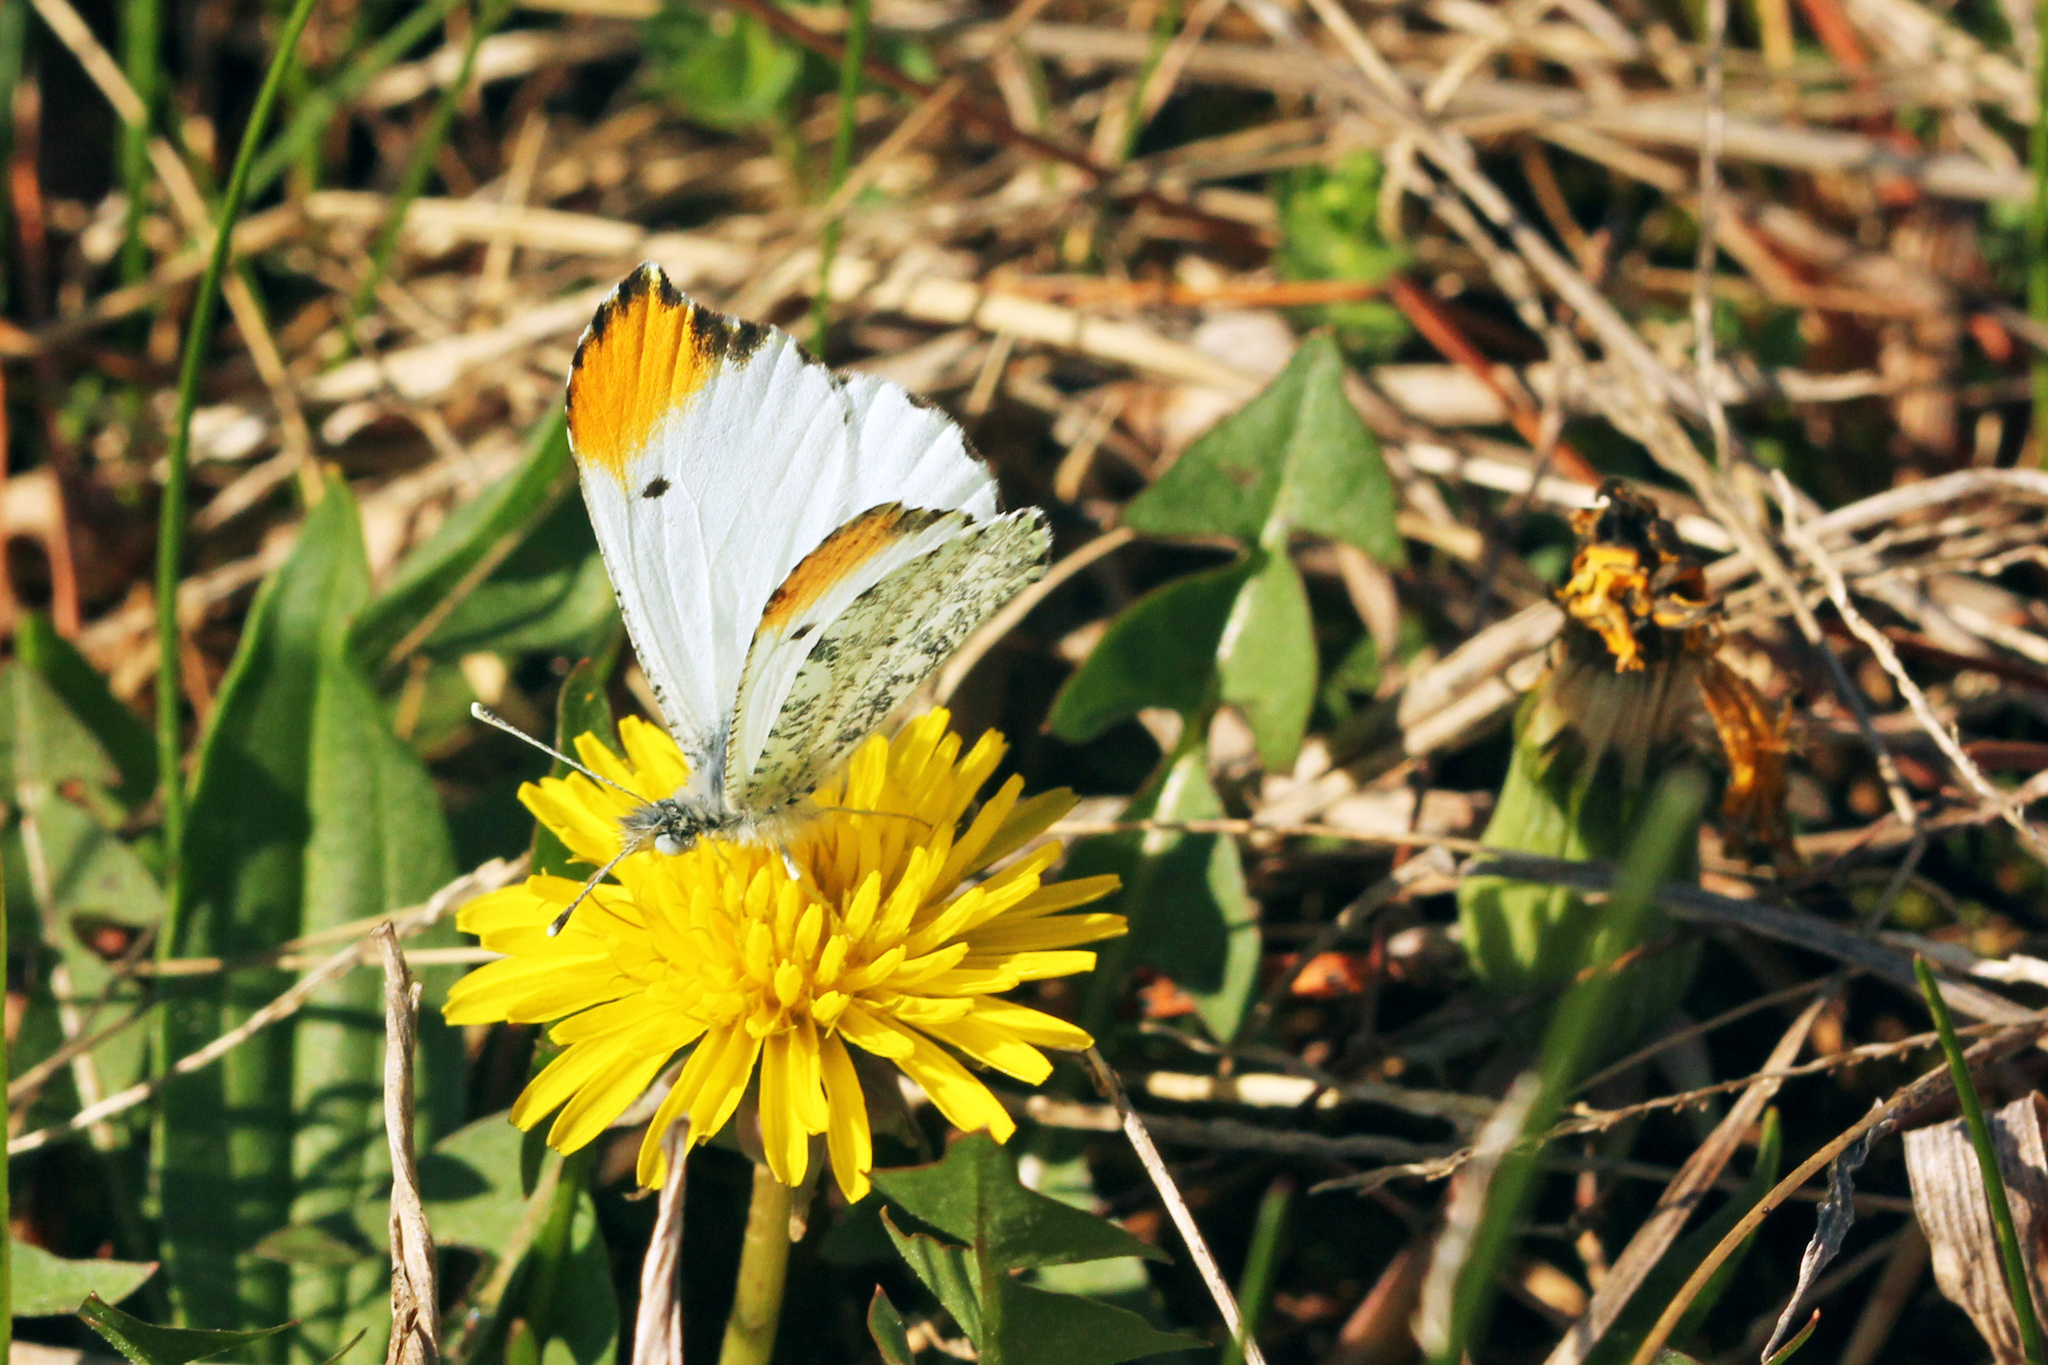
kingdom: Animalia
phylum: Arthropoda
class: Insecta
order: Lepidoptera
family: Pieridae
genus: Anthocharis
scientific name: Anthocharis midea
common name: Falcate orangetip
